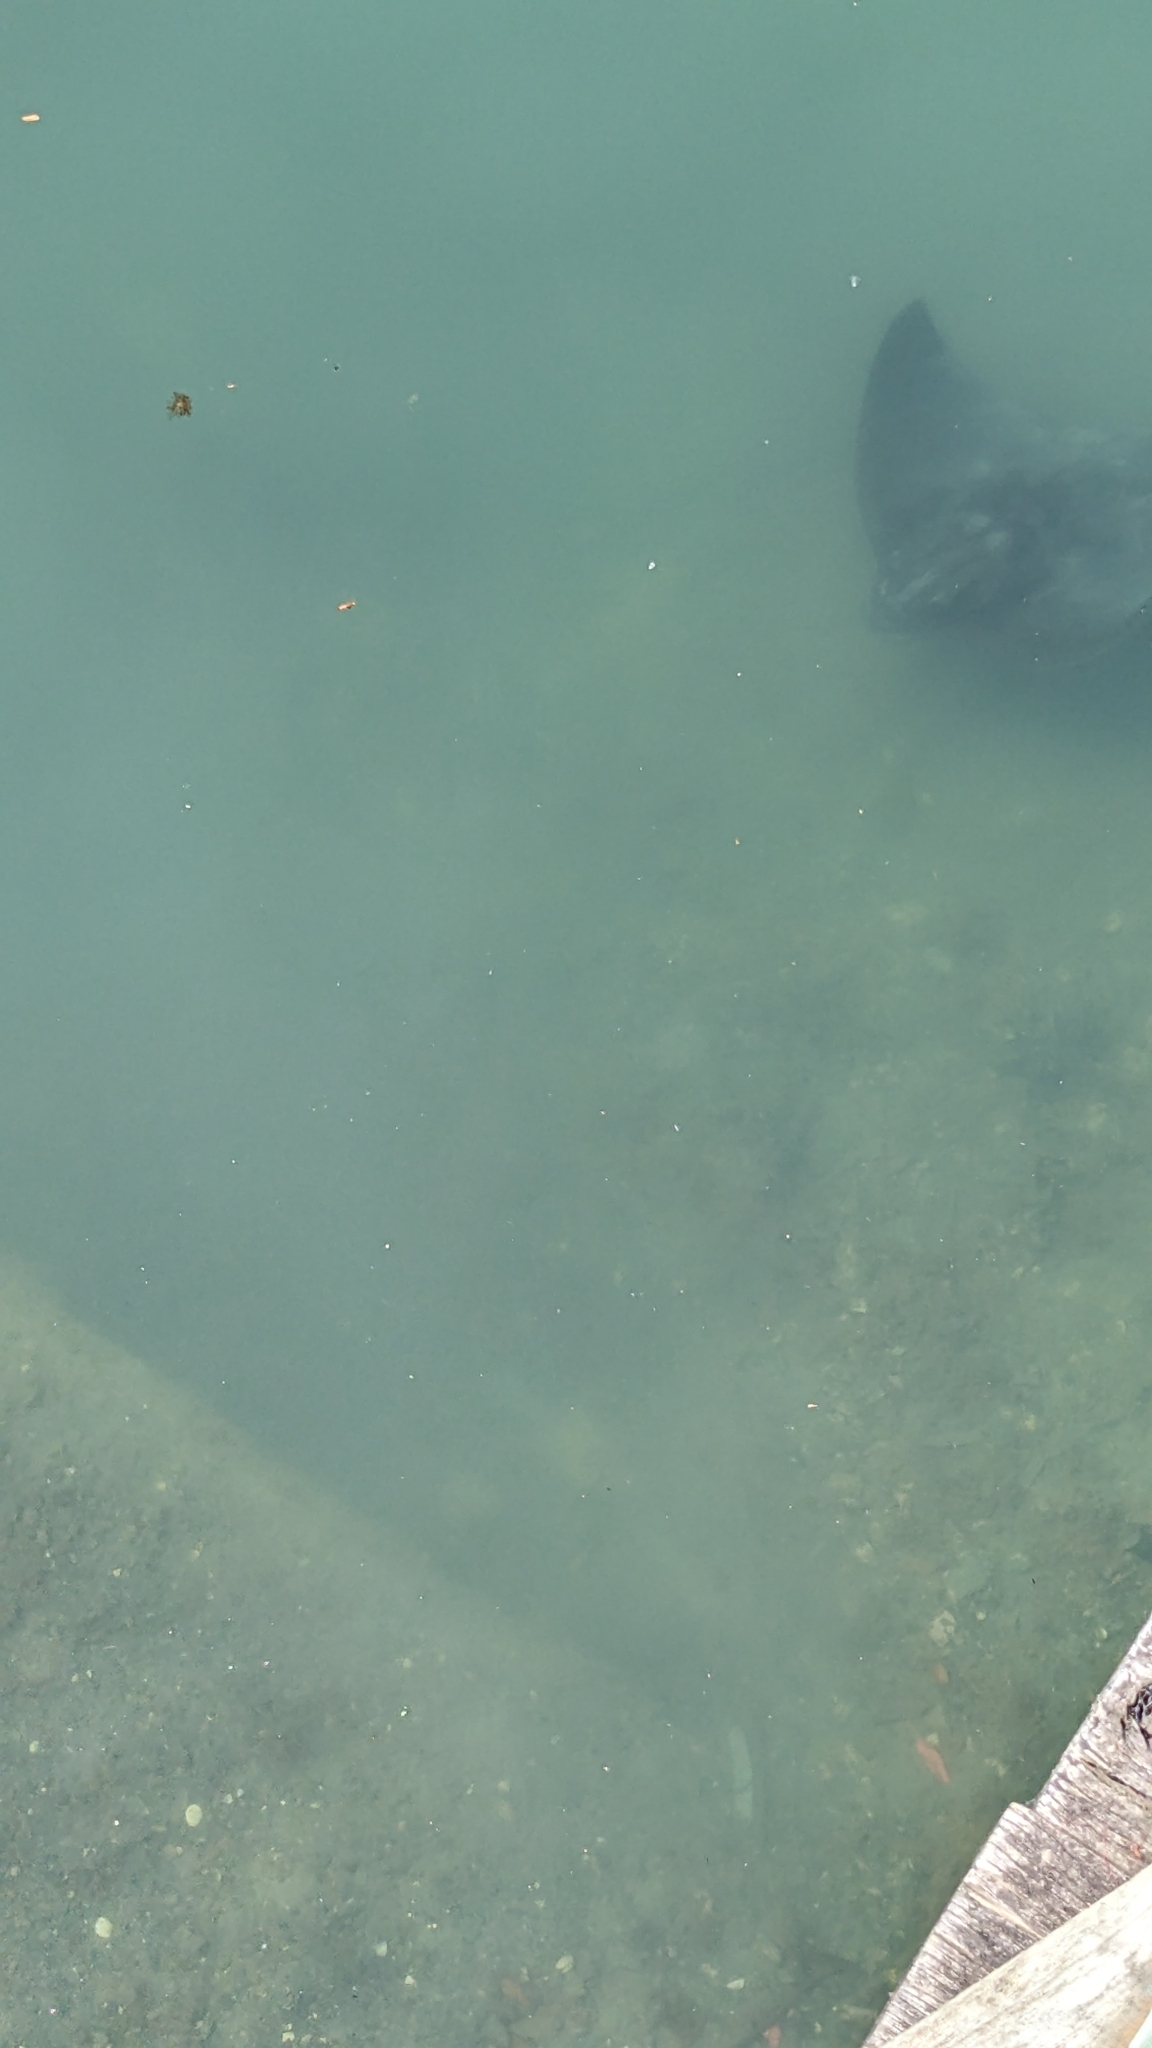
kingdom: Animalia
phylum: Chordata
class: Elasmobranchii
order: Myliobatiformes
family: Myliobatidae
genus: Myliobatis
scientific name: Myliobatis tenuicaudatus
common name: Eagle ray
